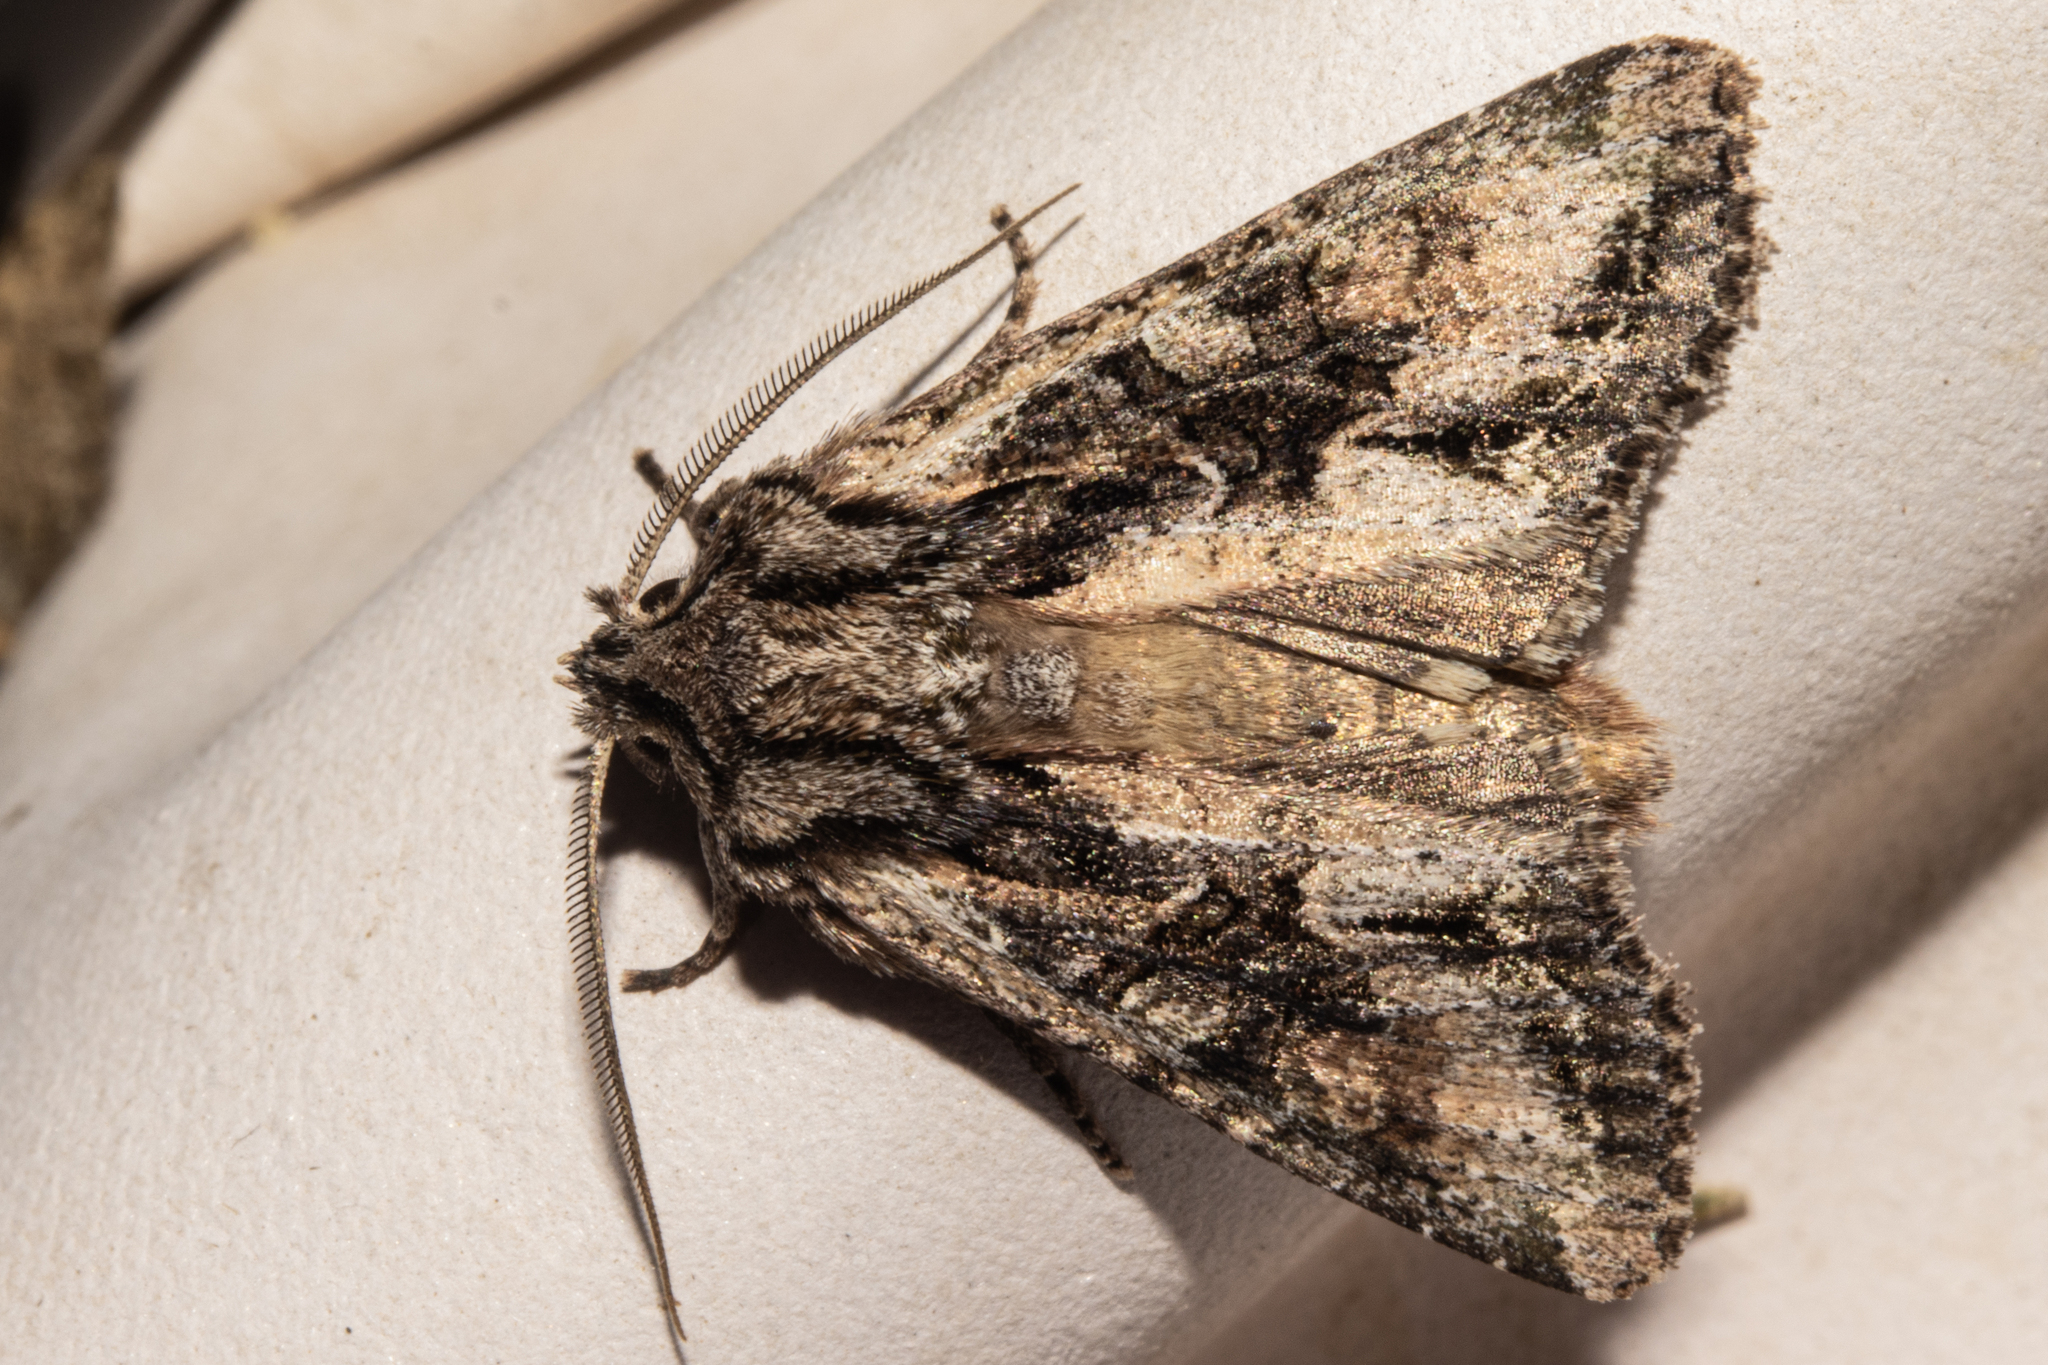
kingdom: Animalia
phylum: Arthropoda
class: Insecta
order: Lepidoptera
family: Noctuidae
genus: Ichneutica
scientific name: Ichneutica mutans
